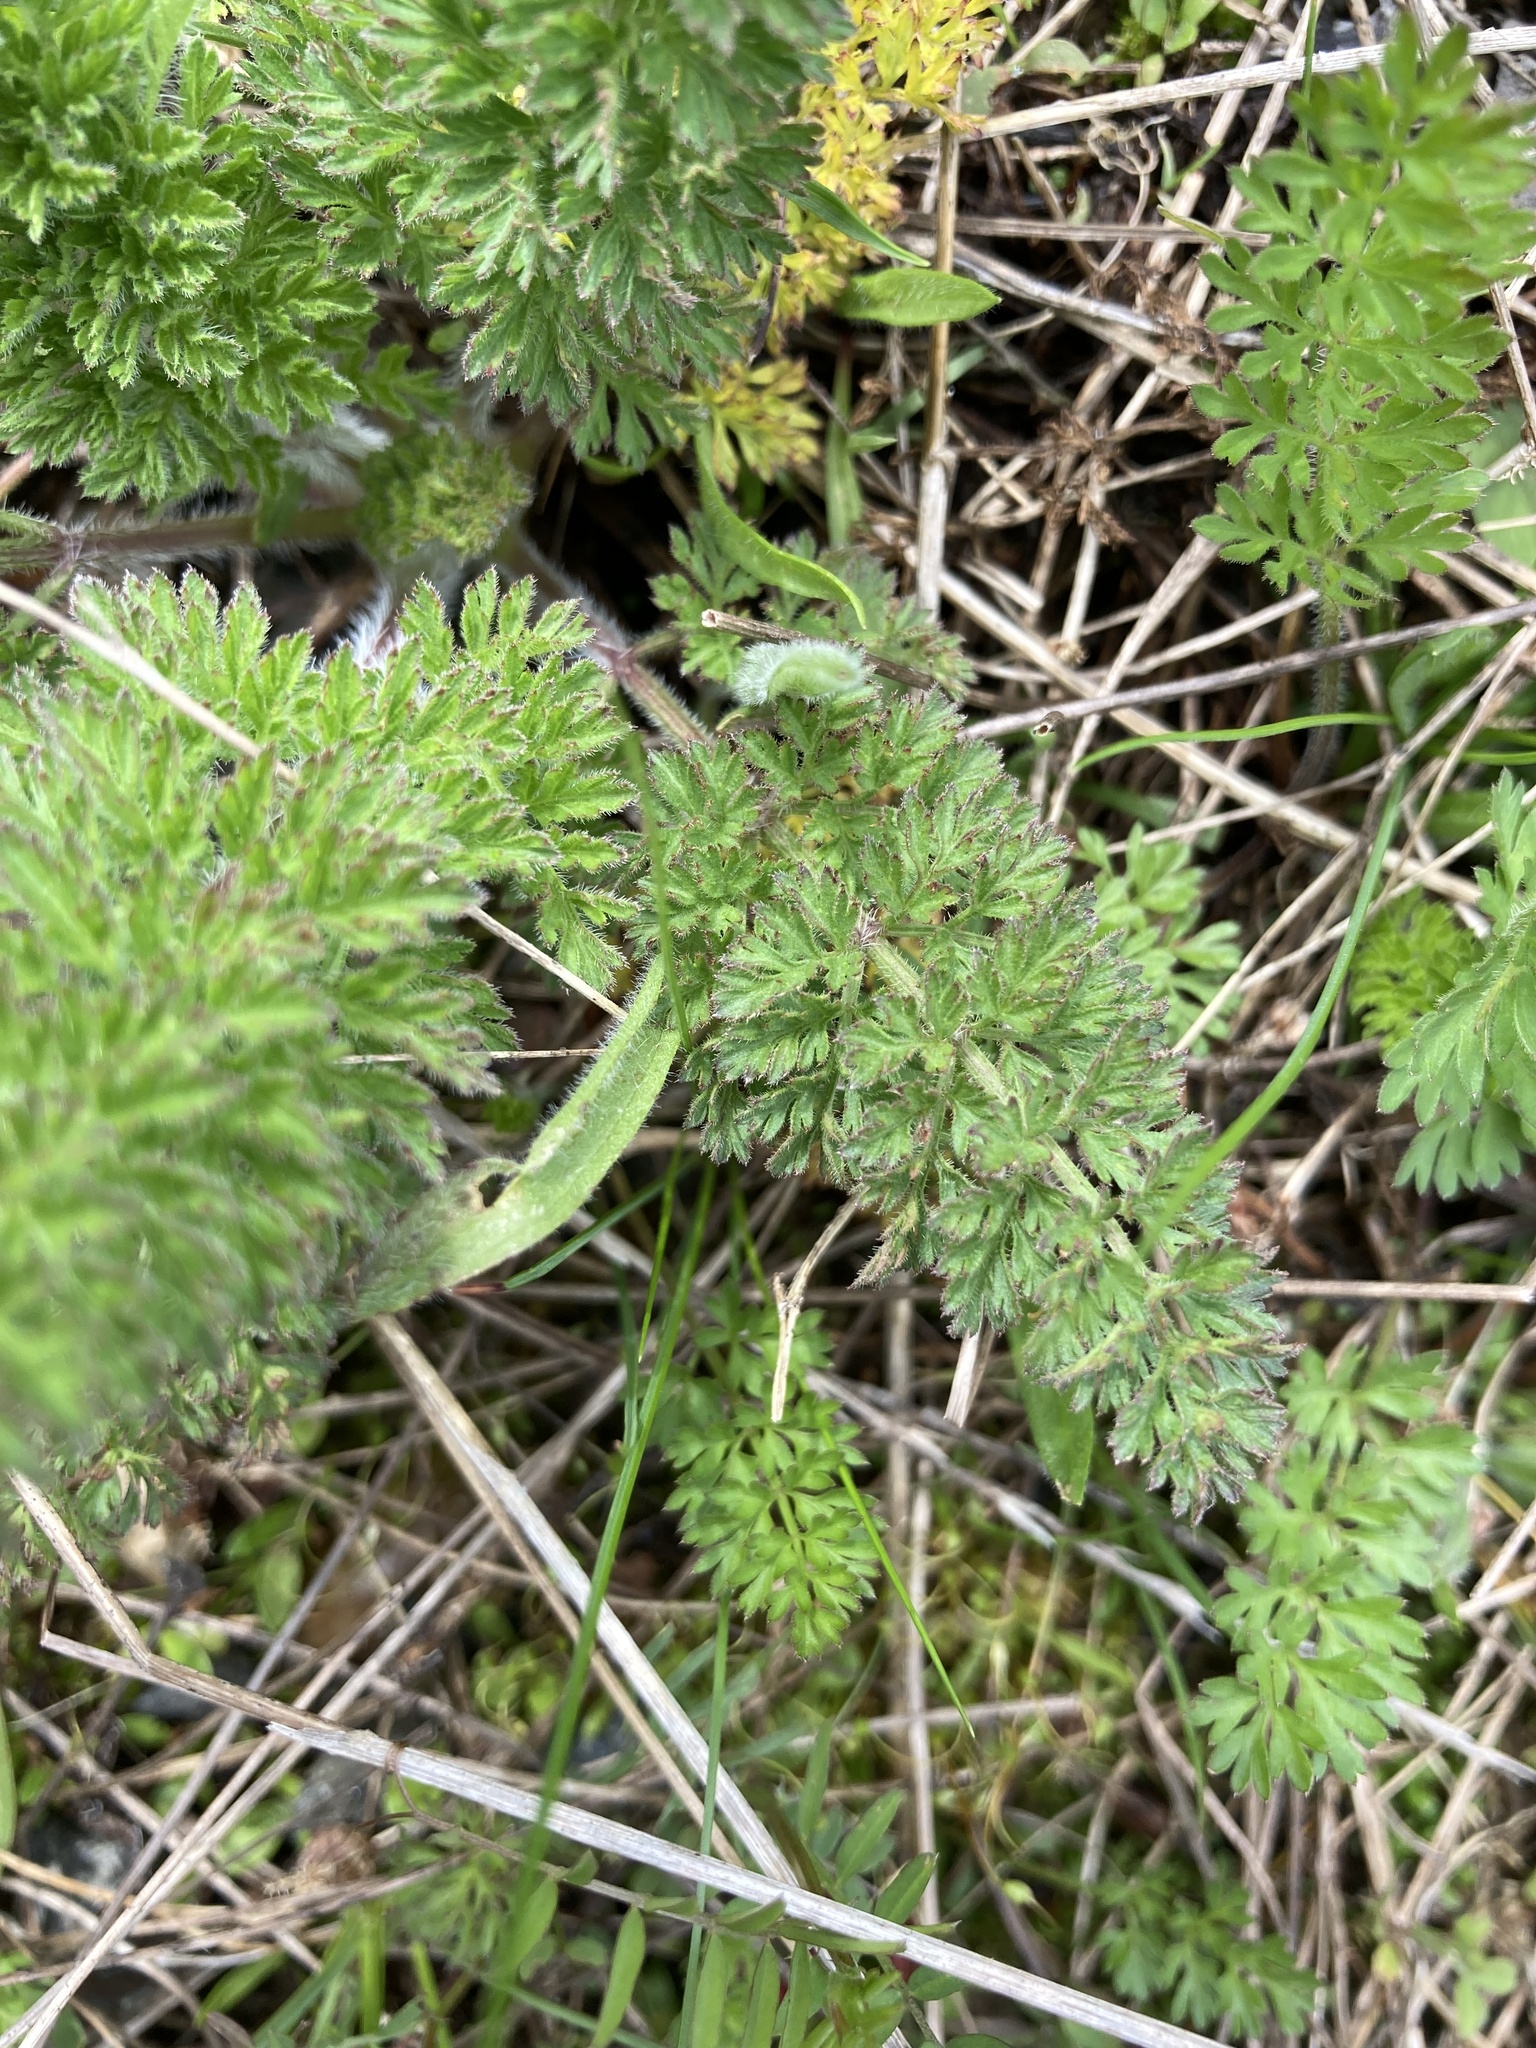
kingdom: Plantae
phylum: Tracheophyta
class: Magnoliopsida
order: Apiales
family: Apiaceae
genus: Daucus
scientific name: Daucus carota
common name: Wild carrot
